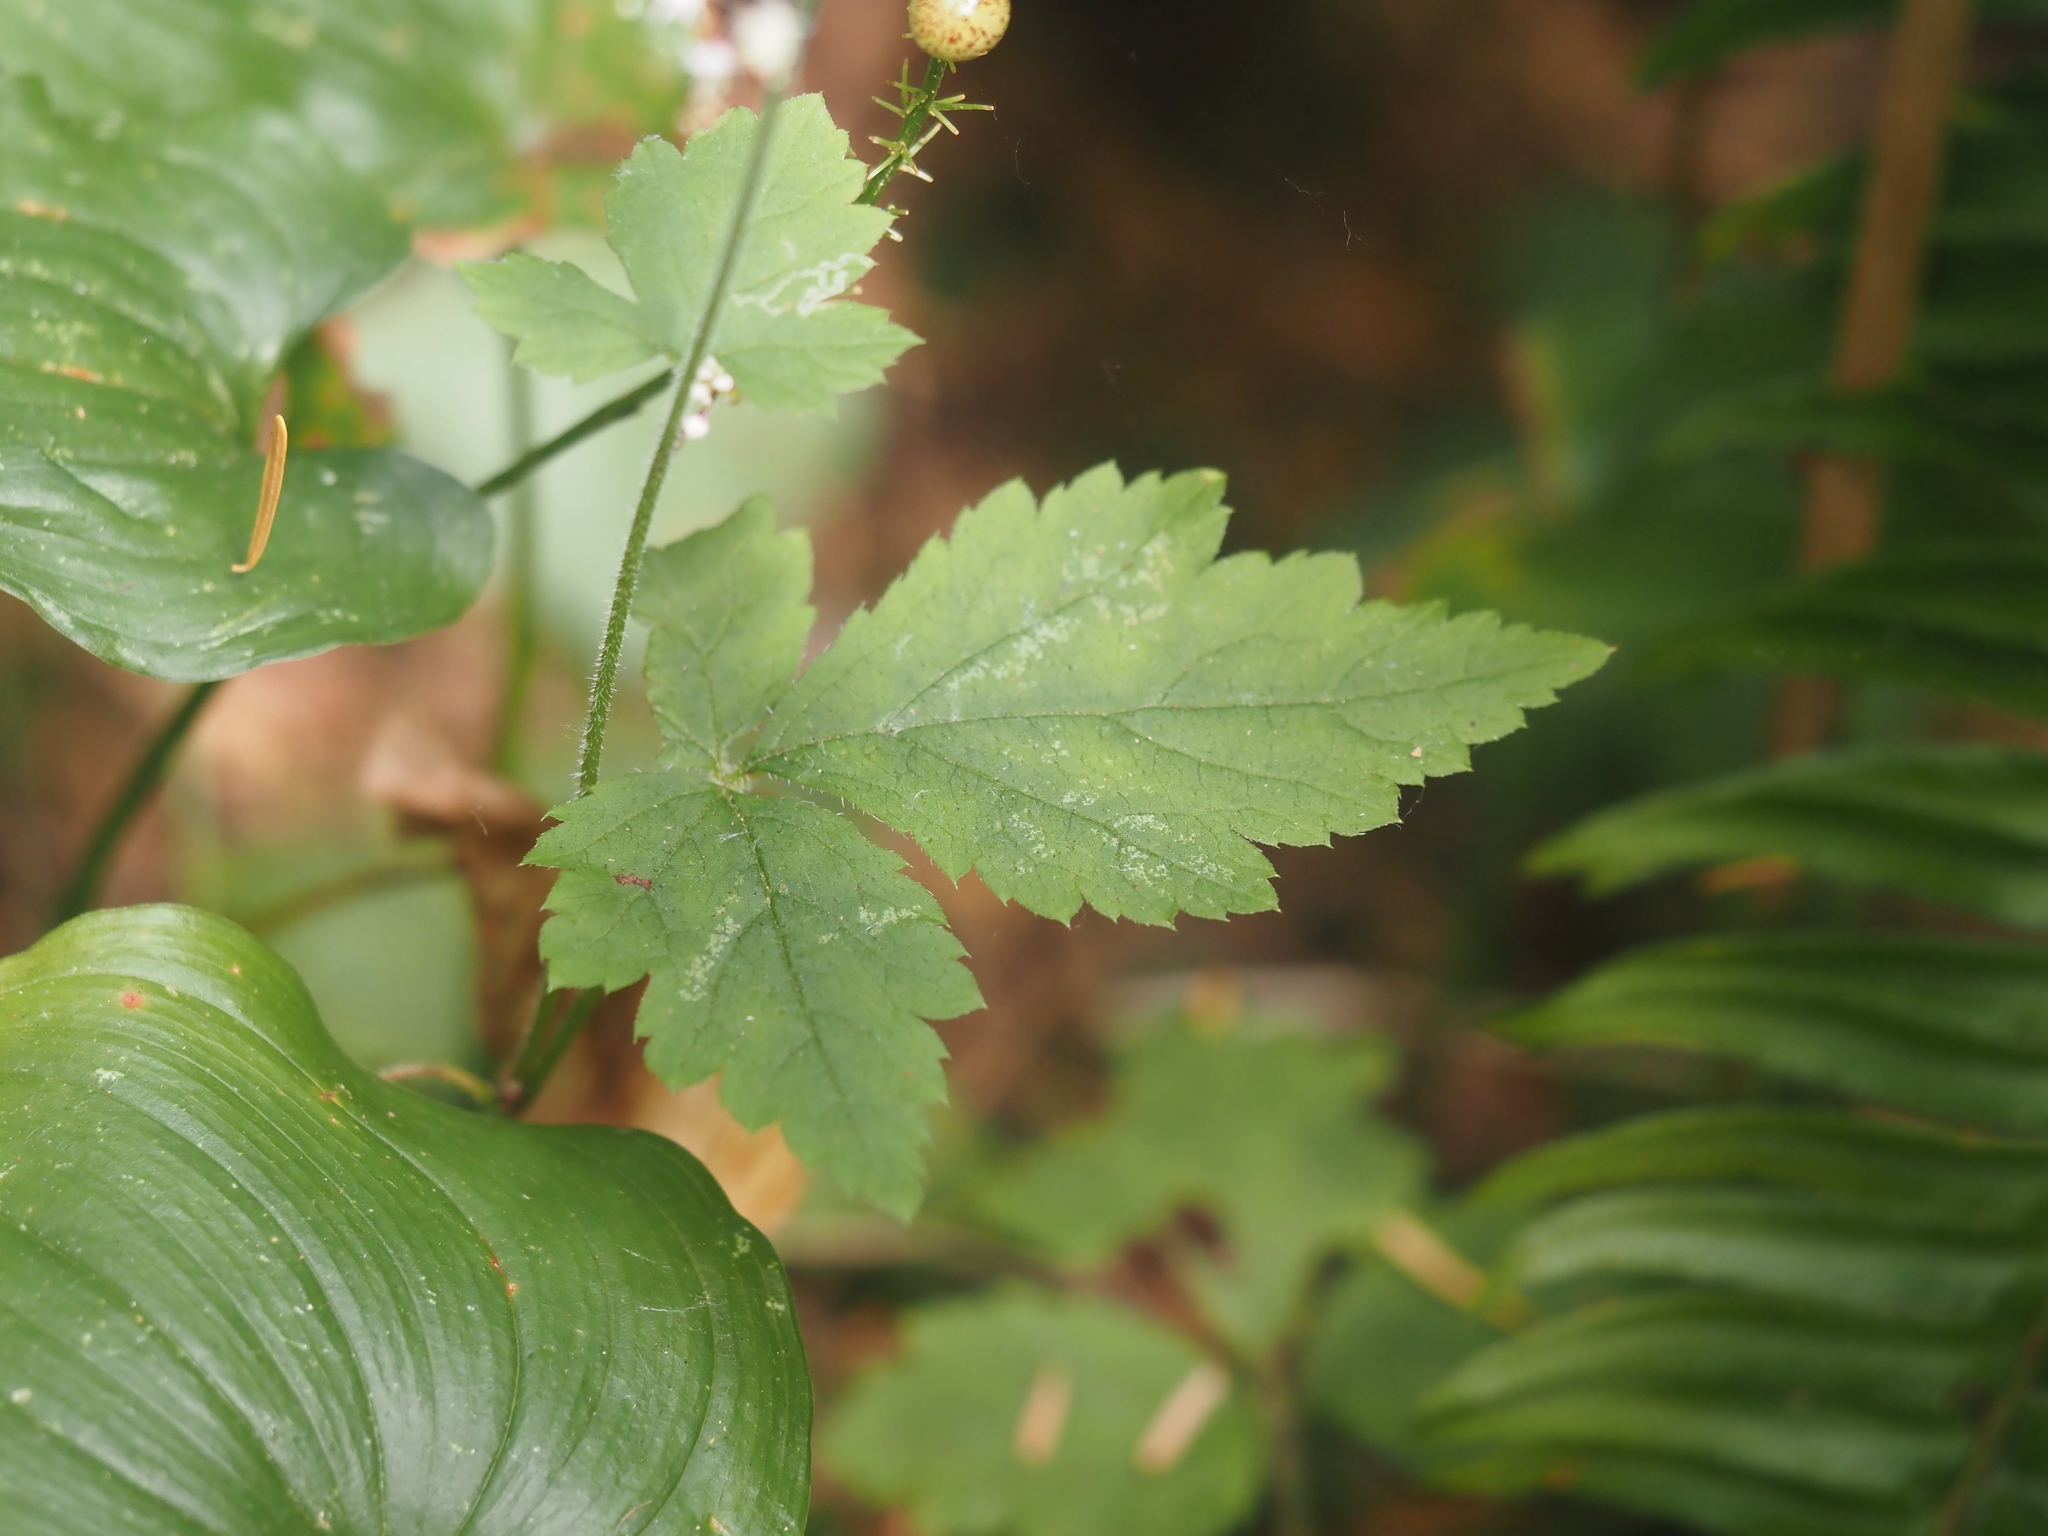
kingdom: Plantae
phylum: Tracheophyta
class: Magnoliopsida
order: Saxifragales
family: Saxifragaceae
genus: Tiarella
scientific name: Tiarella trifoliata
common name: Sugar-scoop
